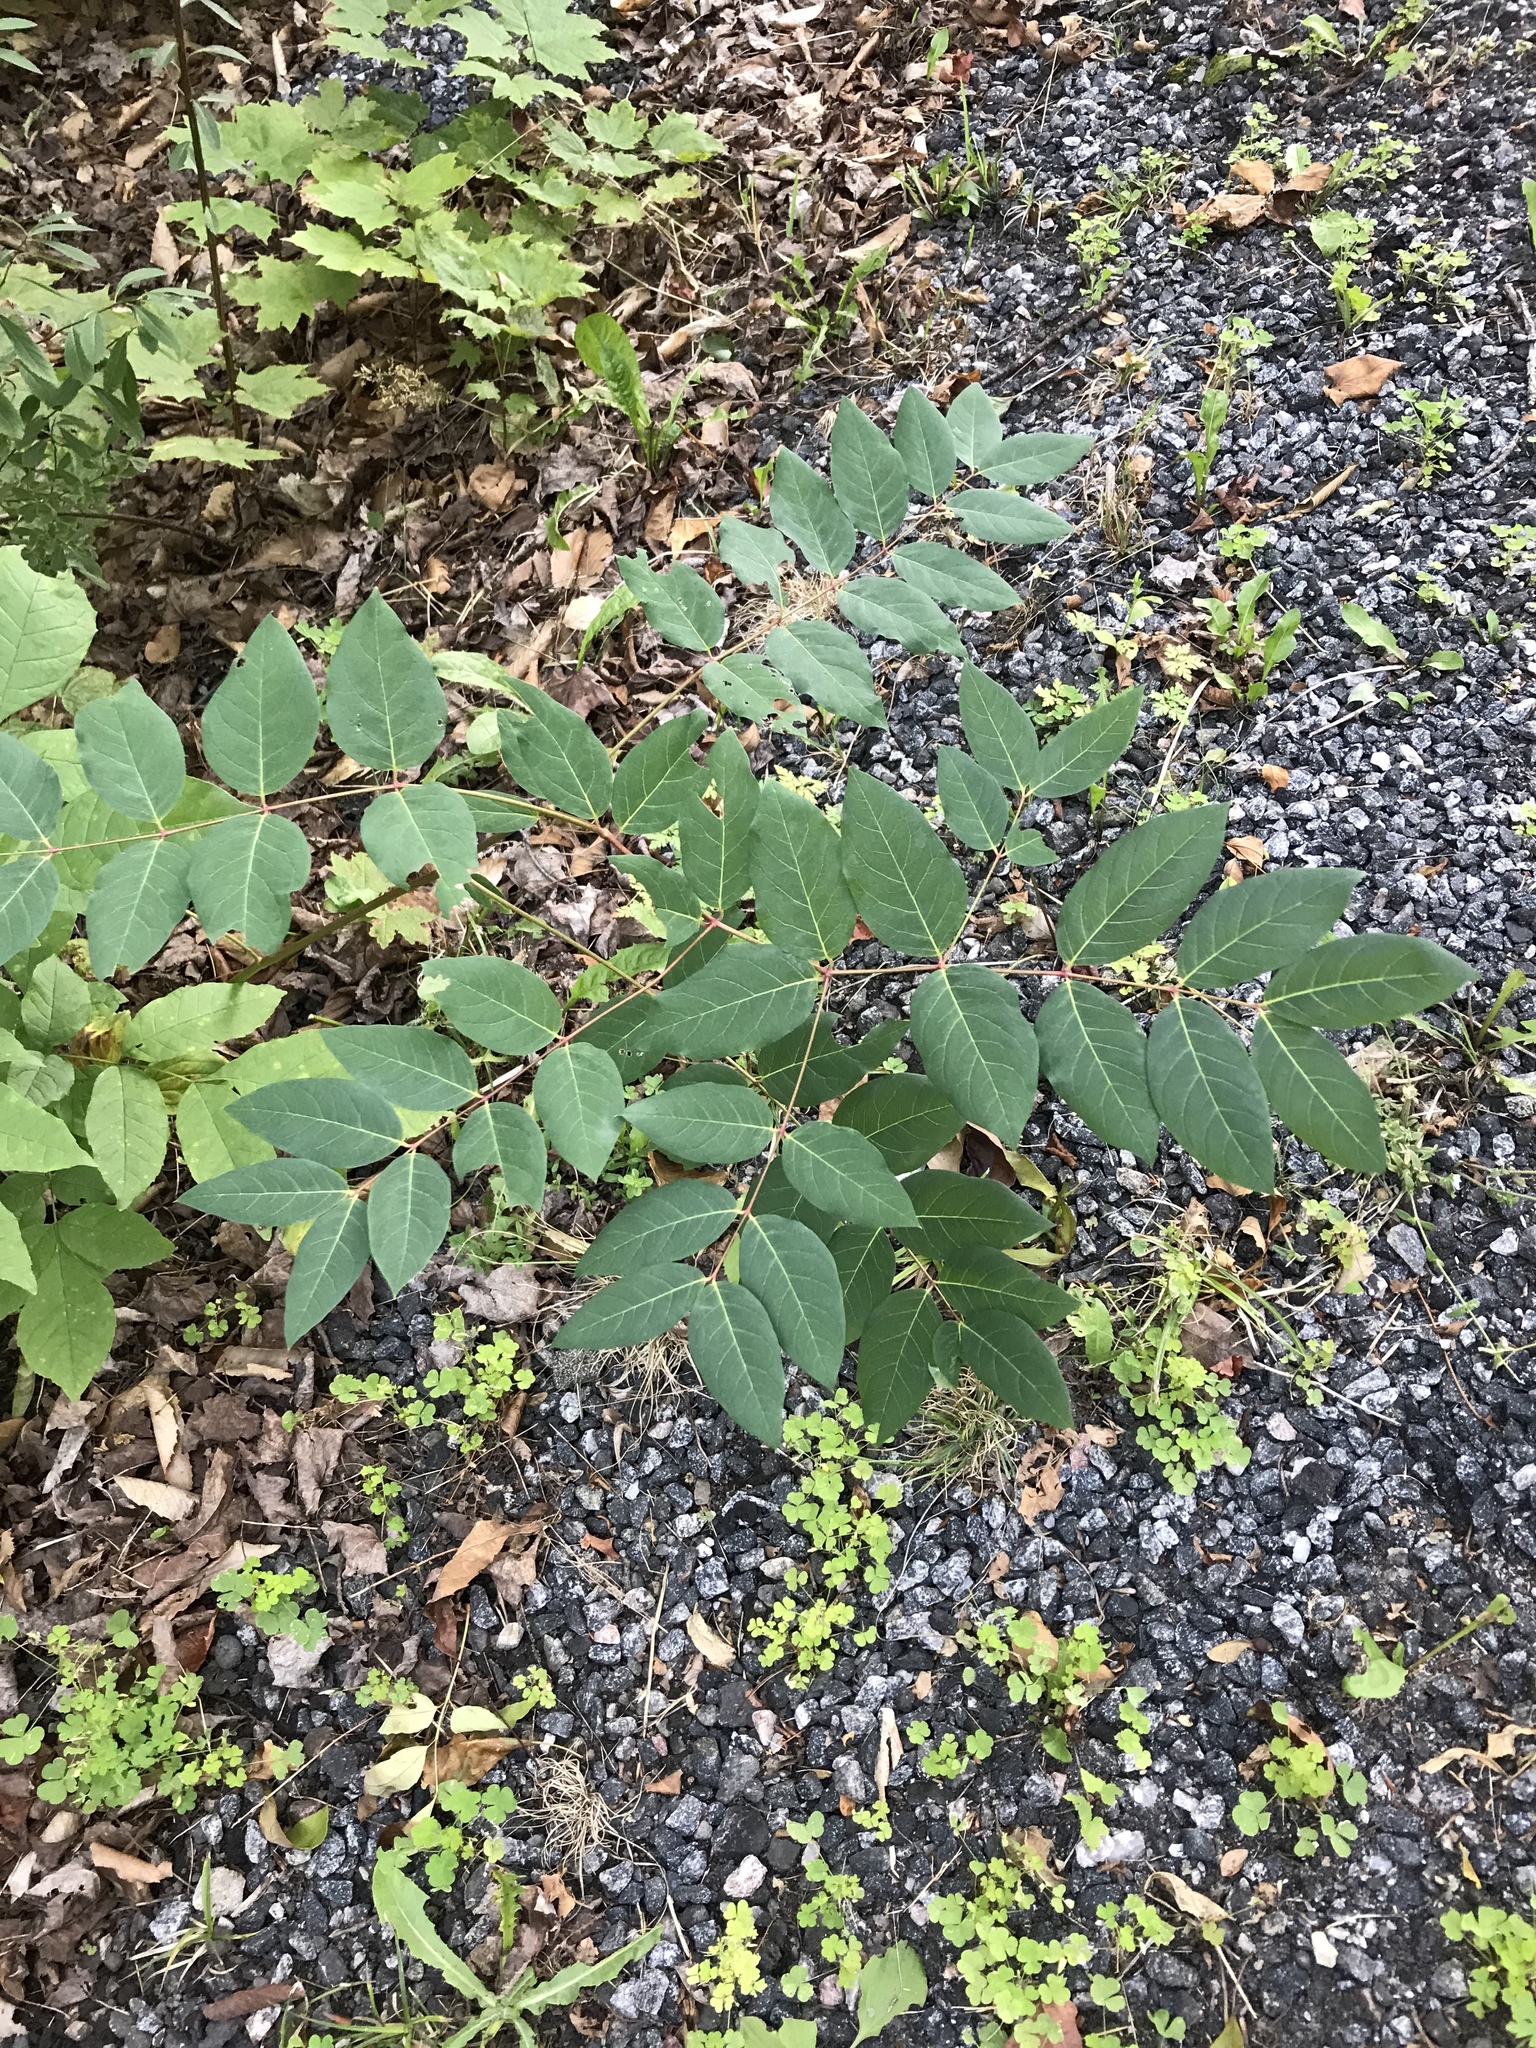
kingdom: Plantae
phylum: Tracheophyta
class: Magnoliopsida
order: Gentianales
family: Apocynaceae
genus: Apocynum
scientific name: Apocynum androsaemifolium
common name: Spreading dogbane
